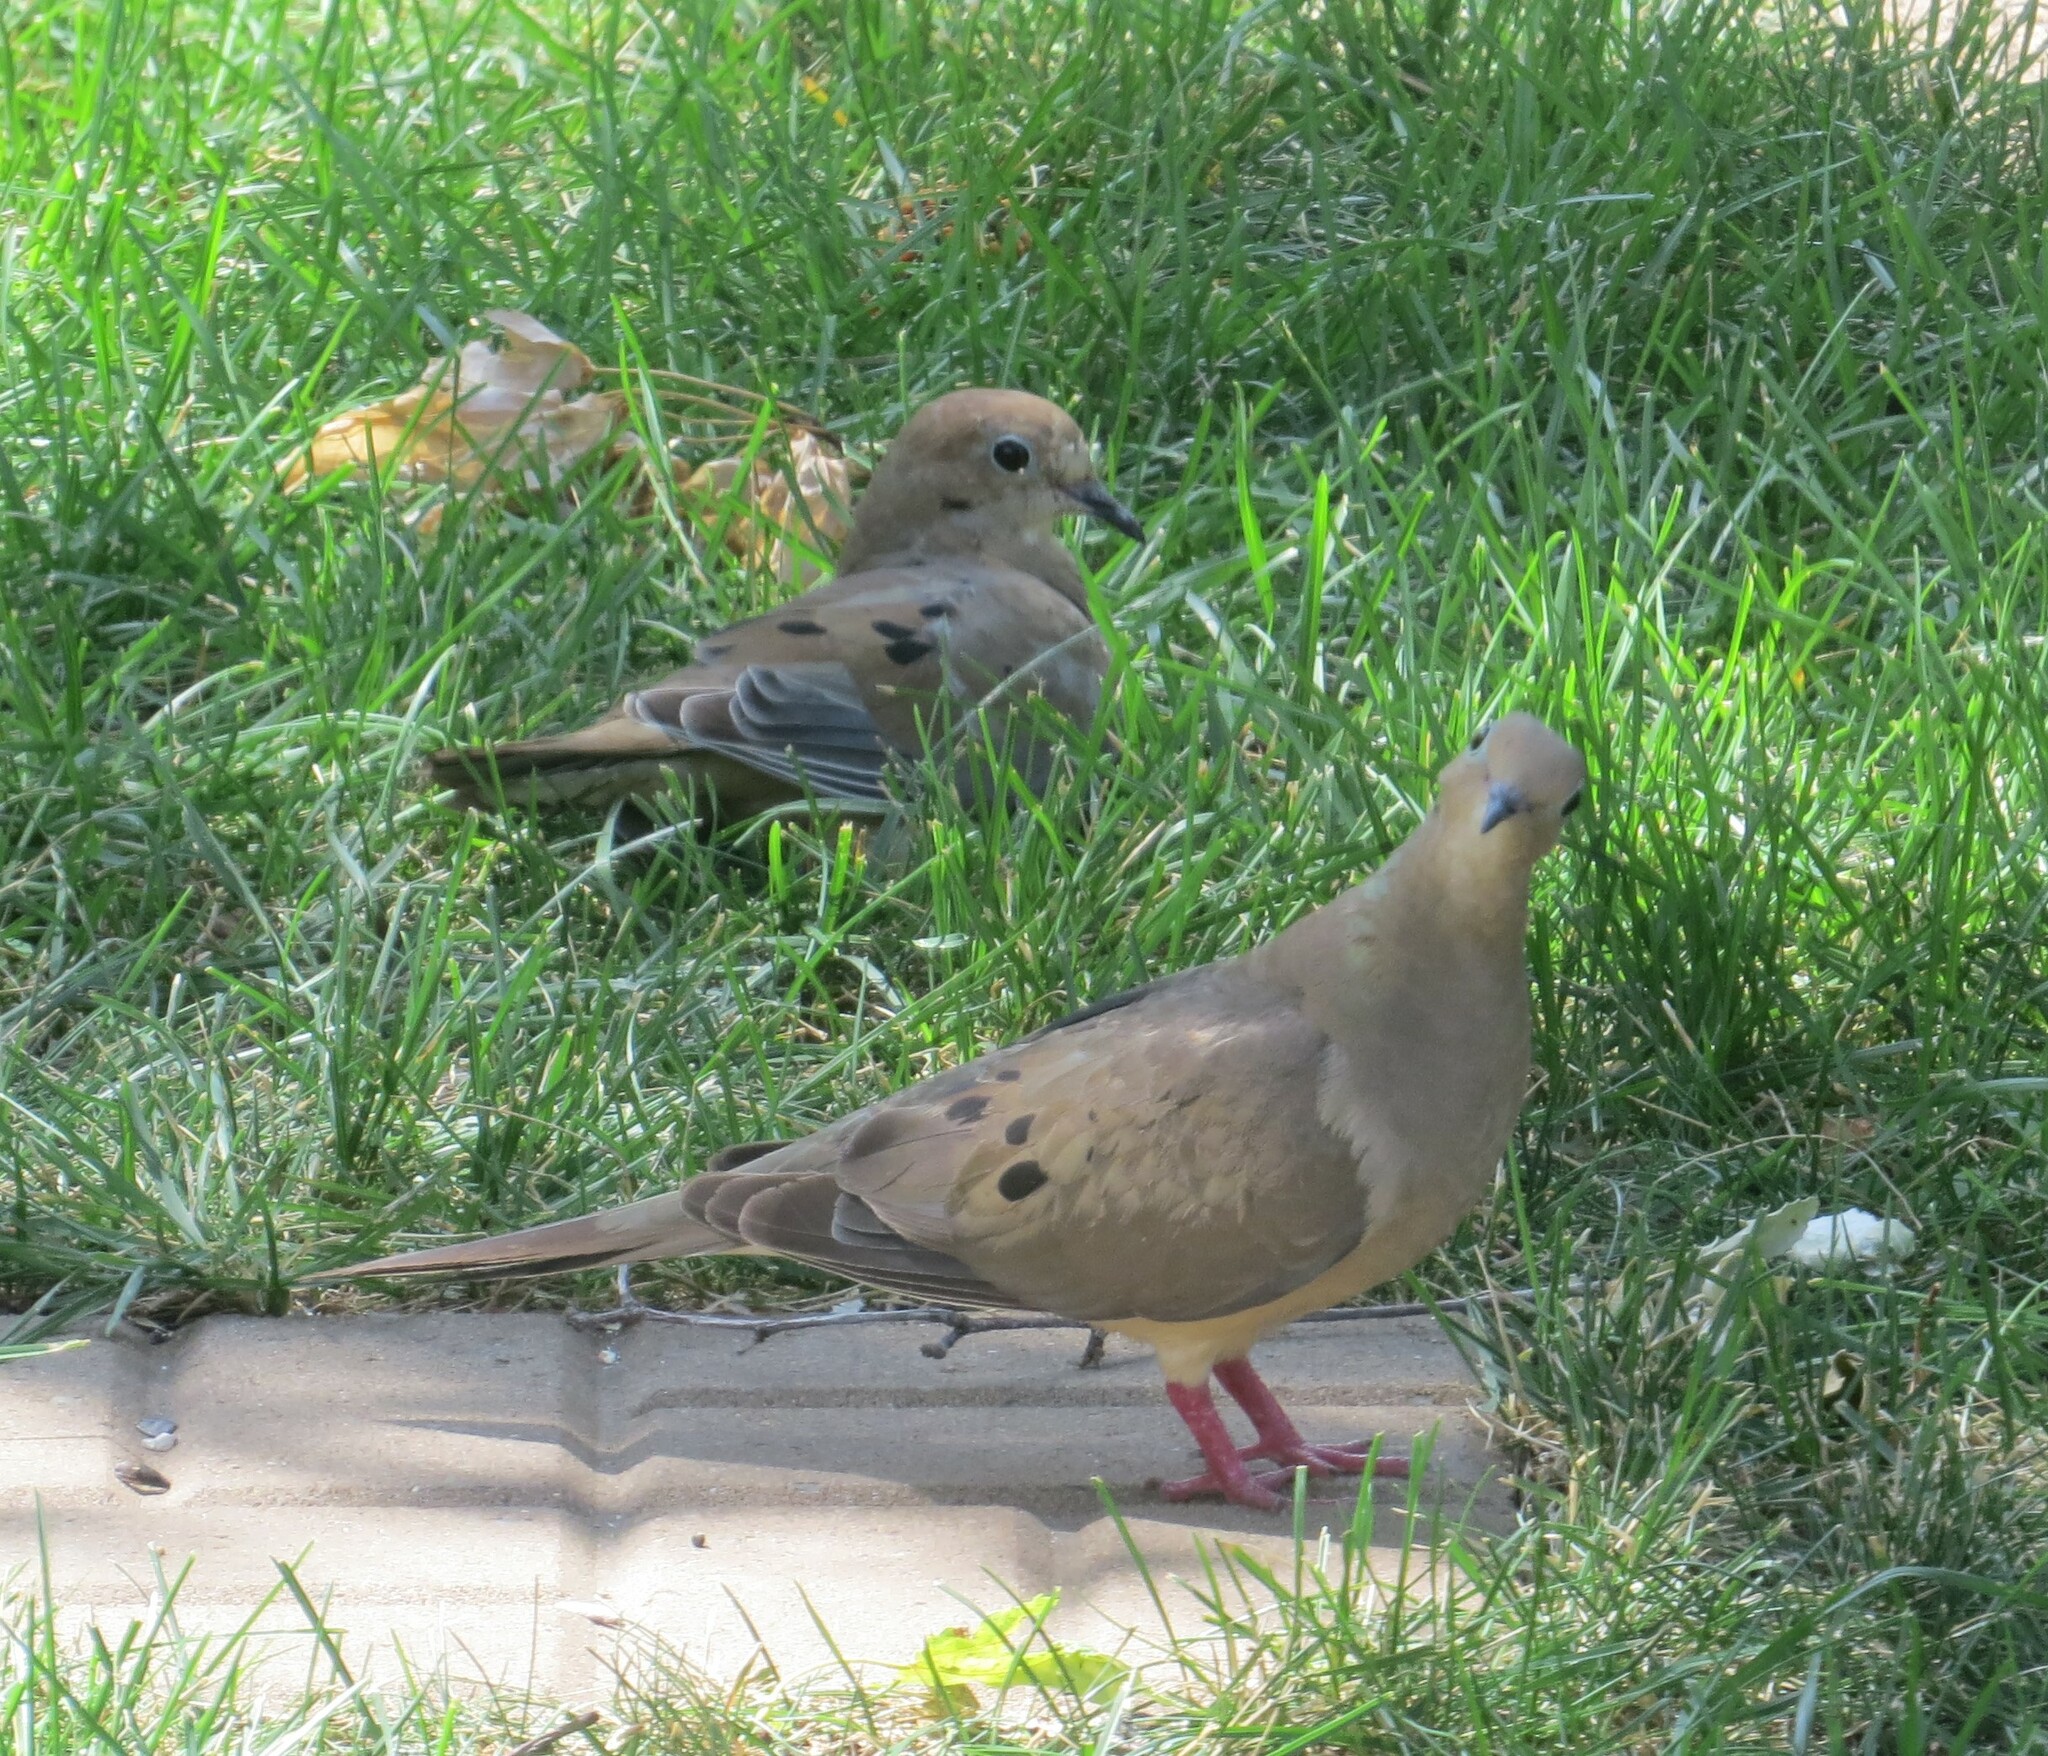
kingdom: Animalia
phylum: Chordata
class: Aves
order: Columbiformes
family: Columbidae
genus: Zenaida
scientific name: Zenaida macroura
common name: Mourning dove
